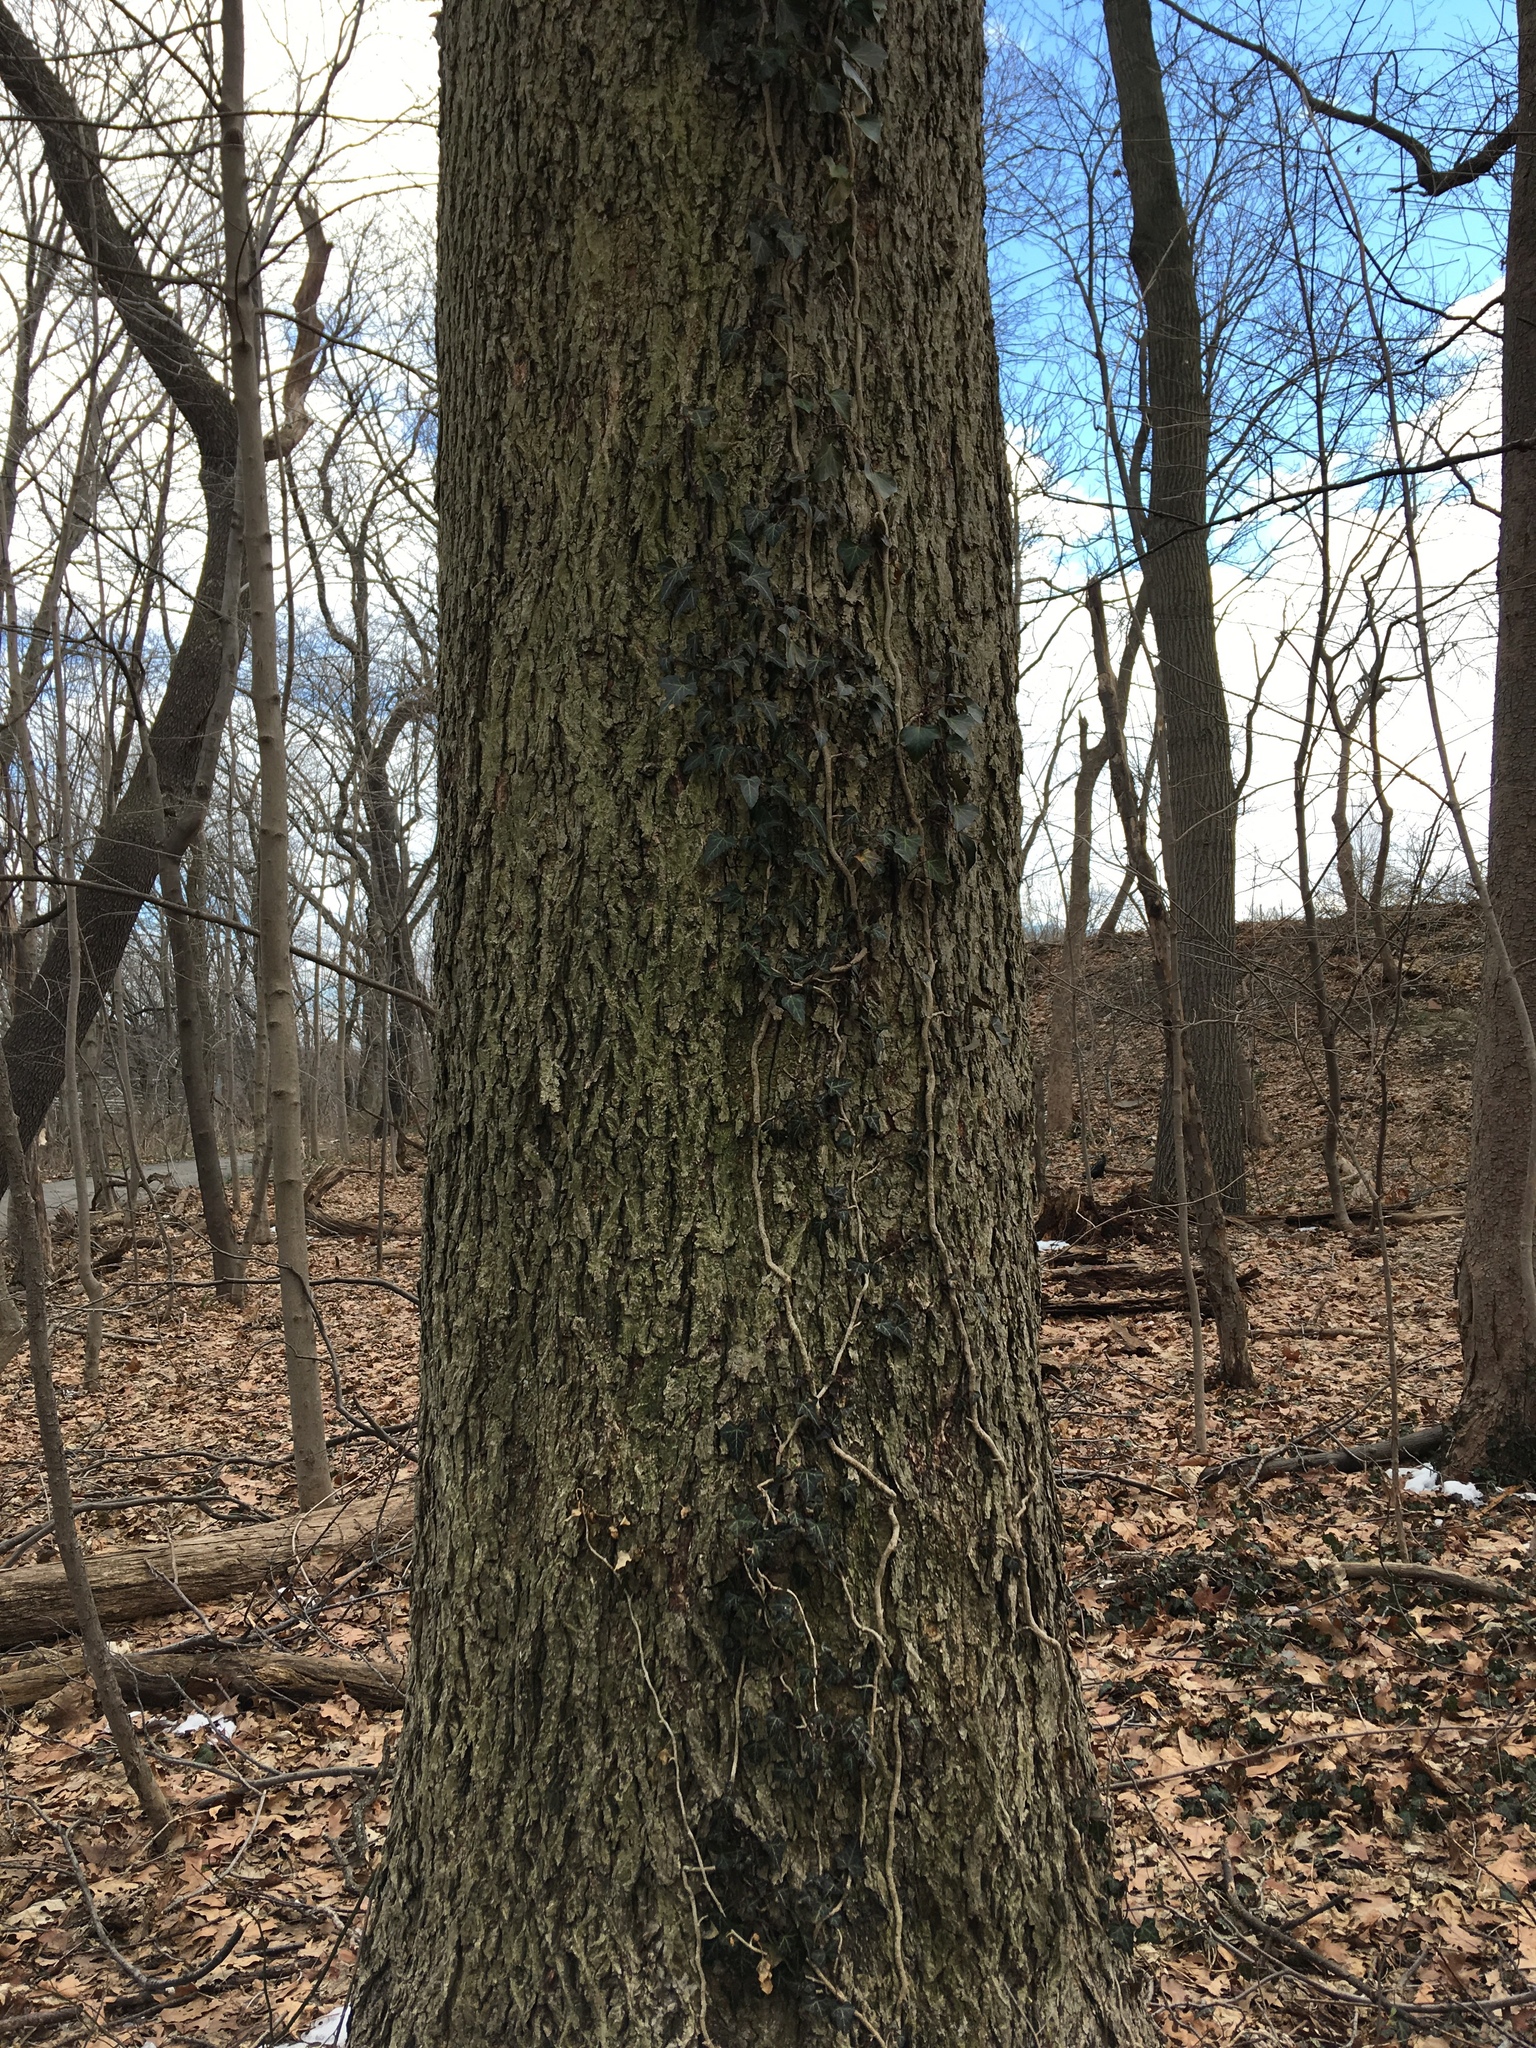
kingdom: Plantae
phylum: Tracheophyta
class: Magnoliopsida
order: Apiales
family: Araliaceae
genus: Hedera
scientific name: Hedera helix
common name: Ivy
